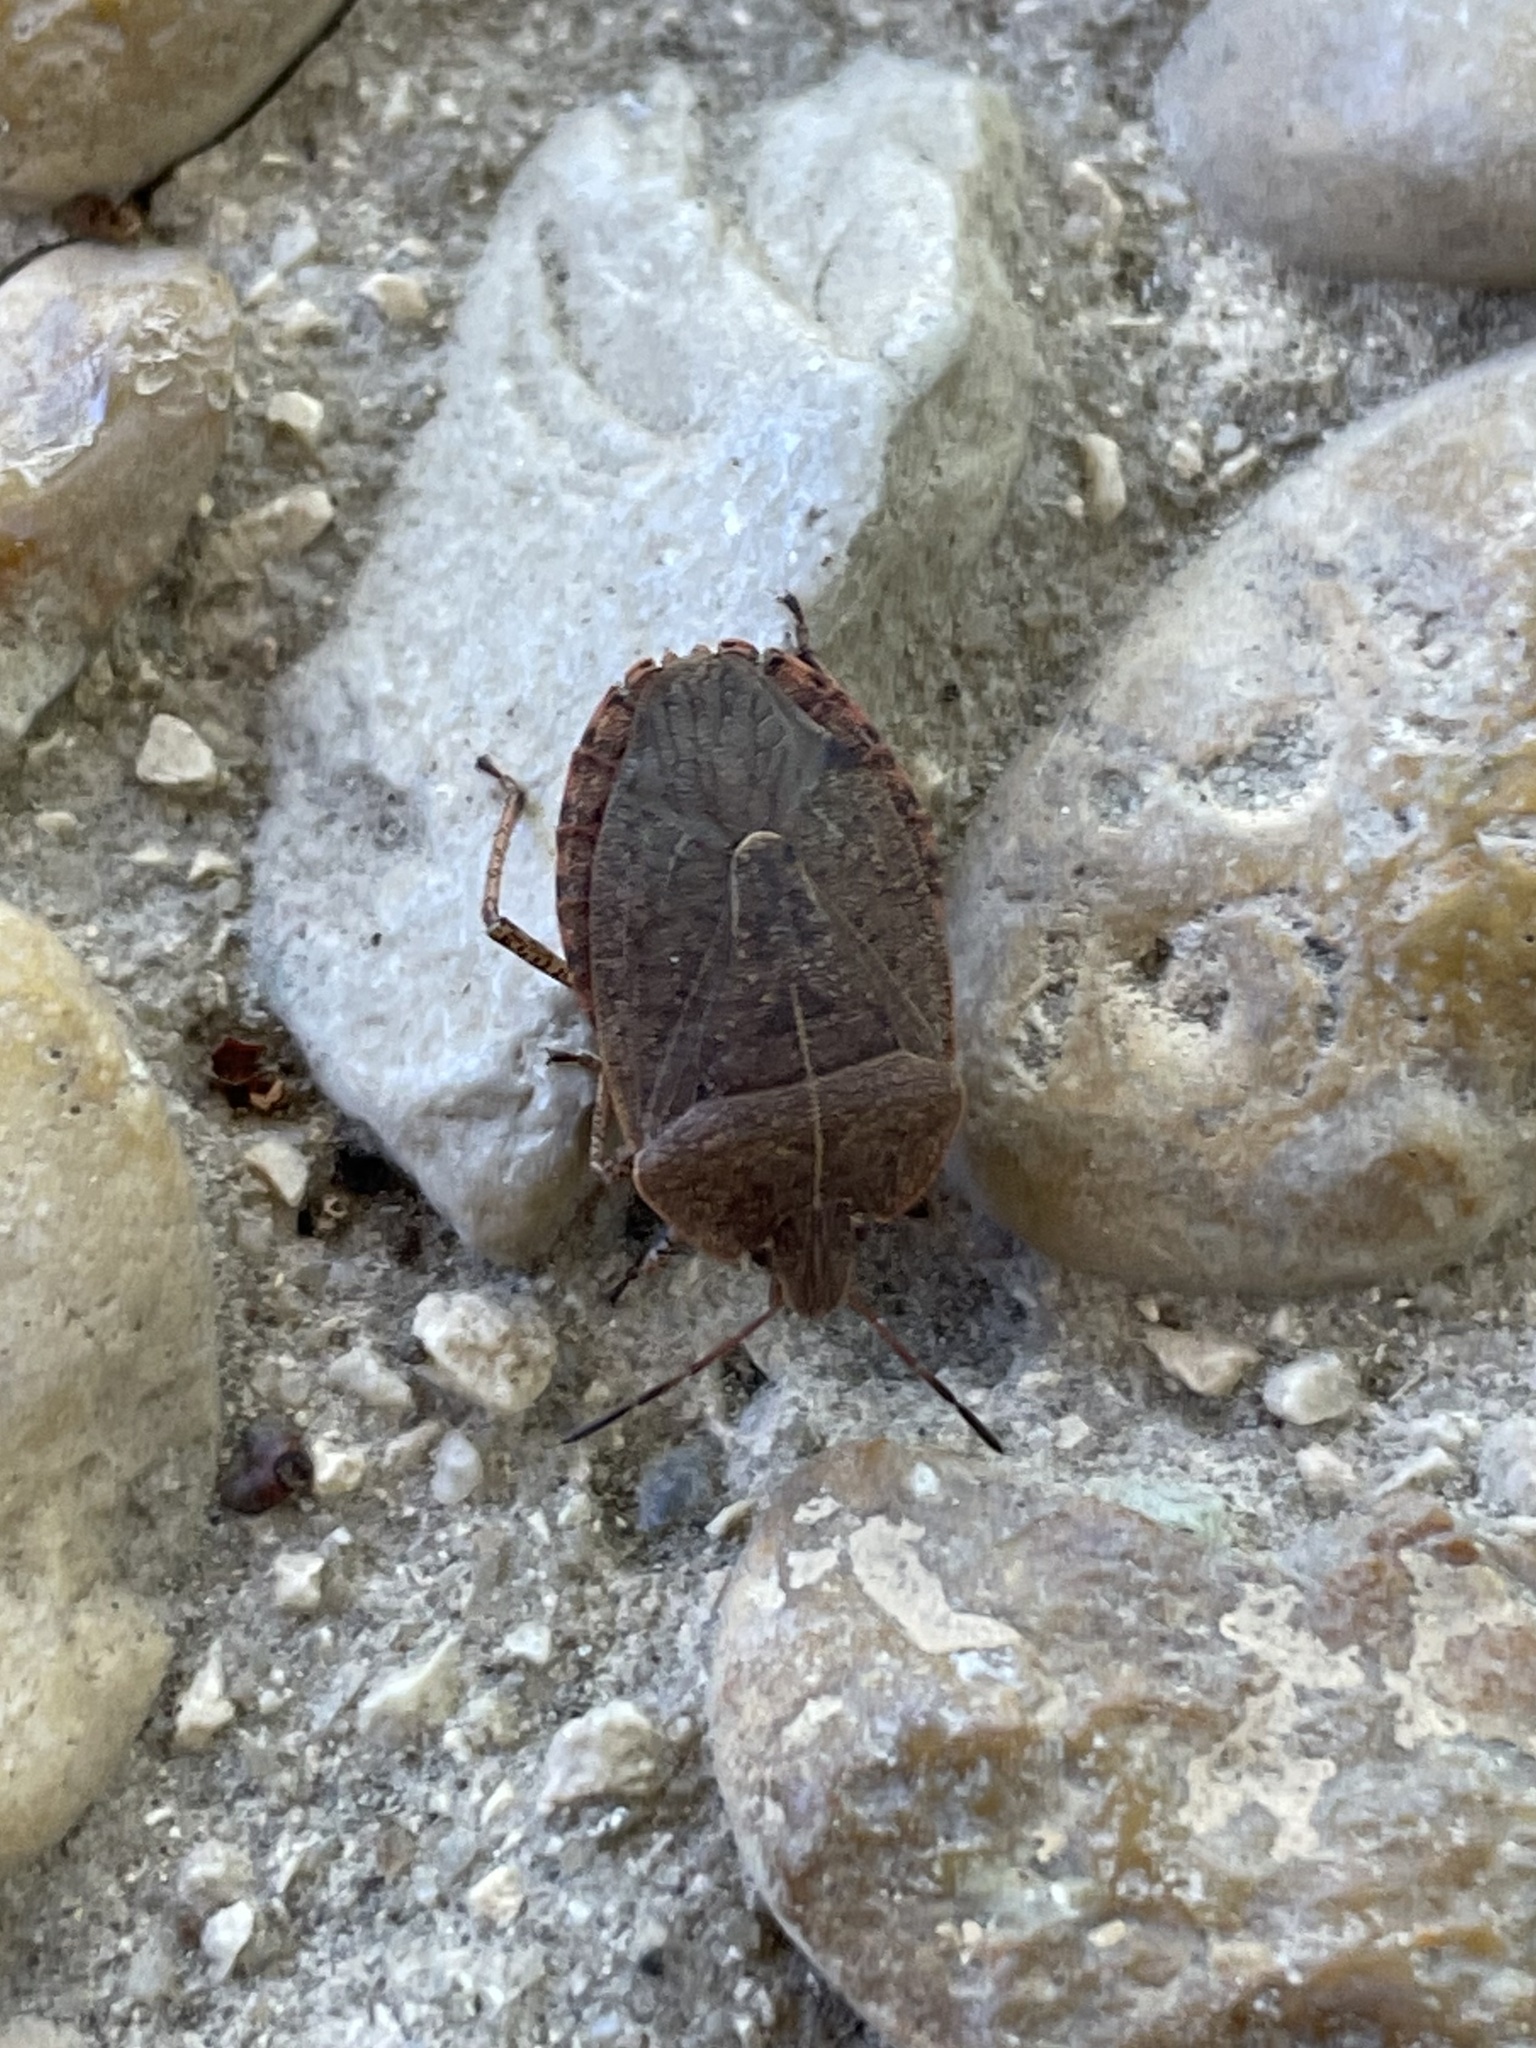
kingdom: Animalia
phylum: Arthropoda
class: Insecta
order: Hemiptera
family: Pentatomidae
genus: Menecles
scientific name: Menecles insertus
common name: Elf shoe stink bug
